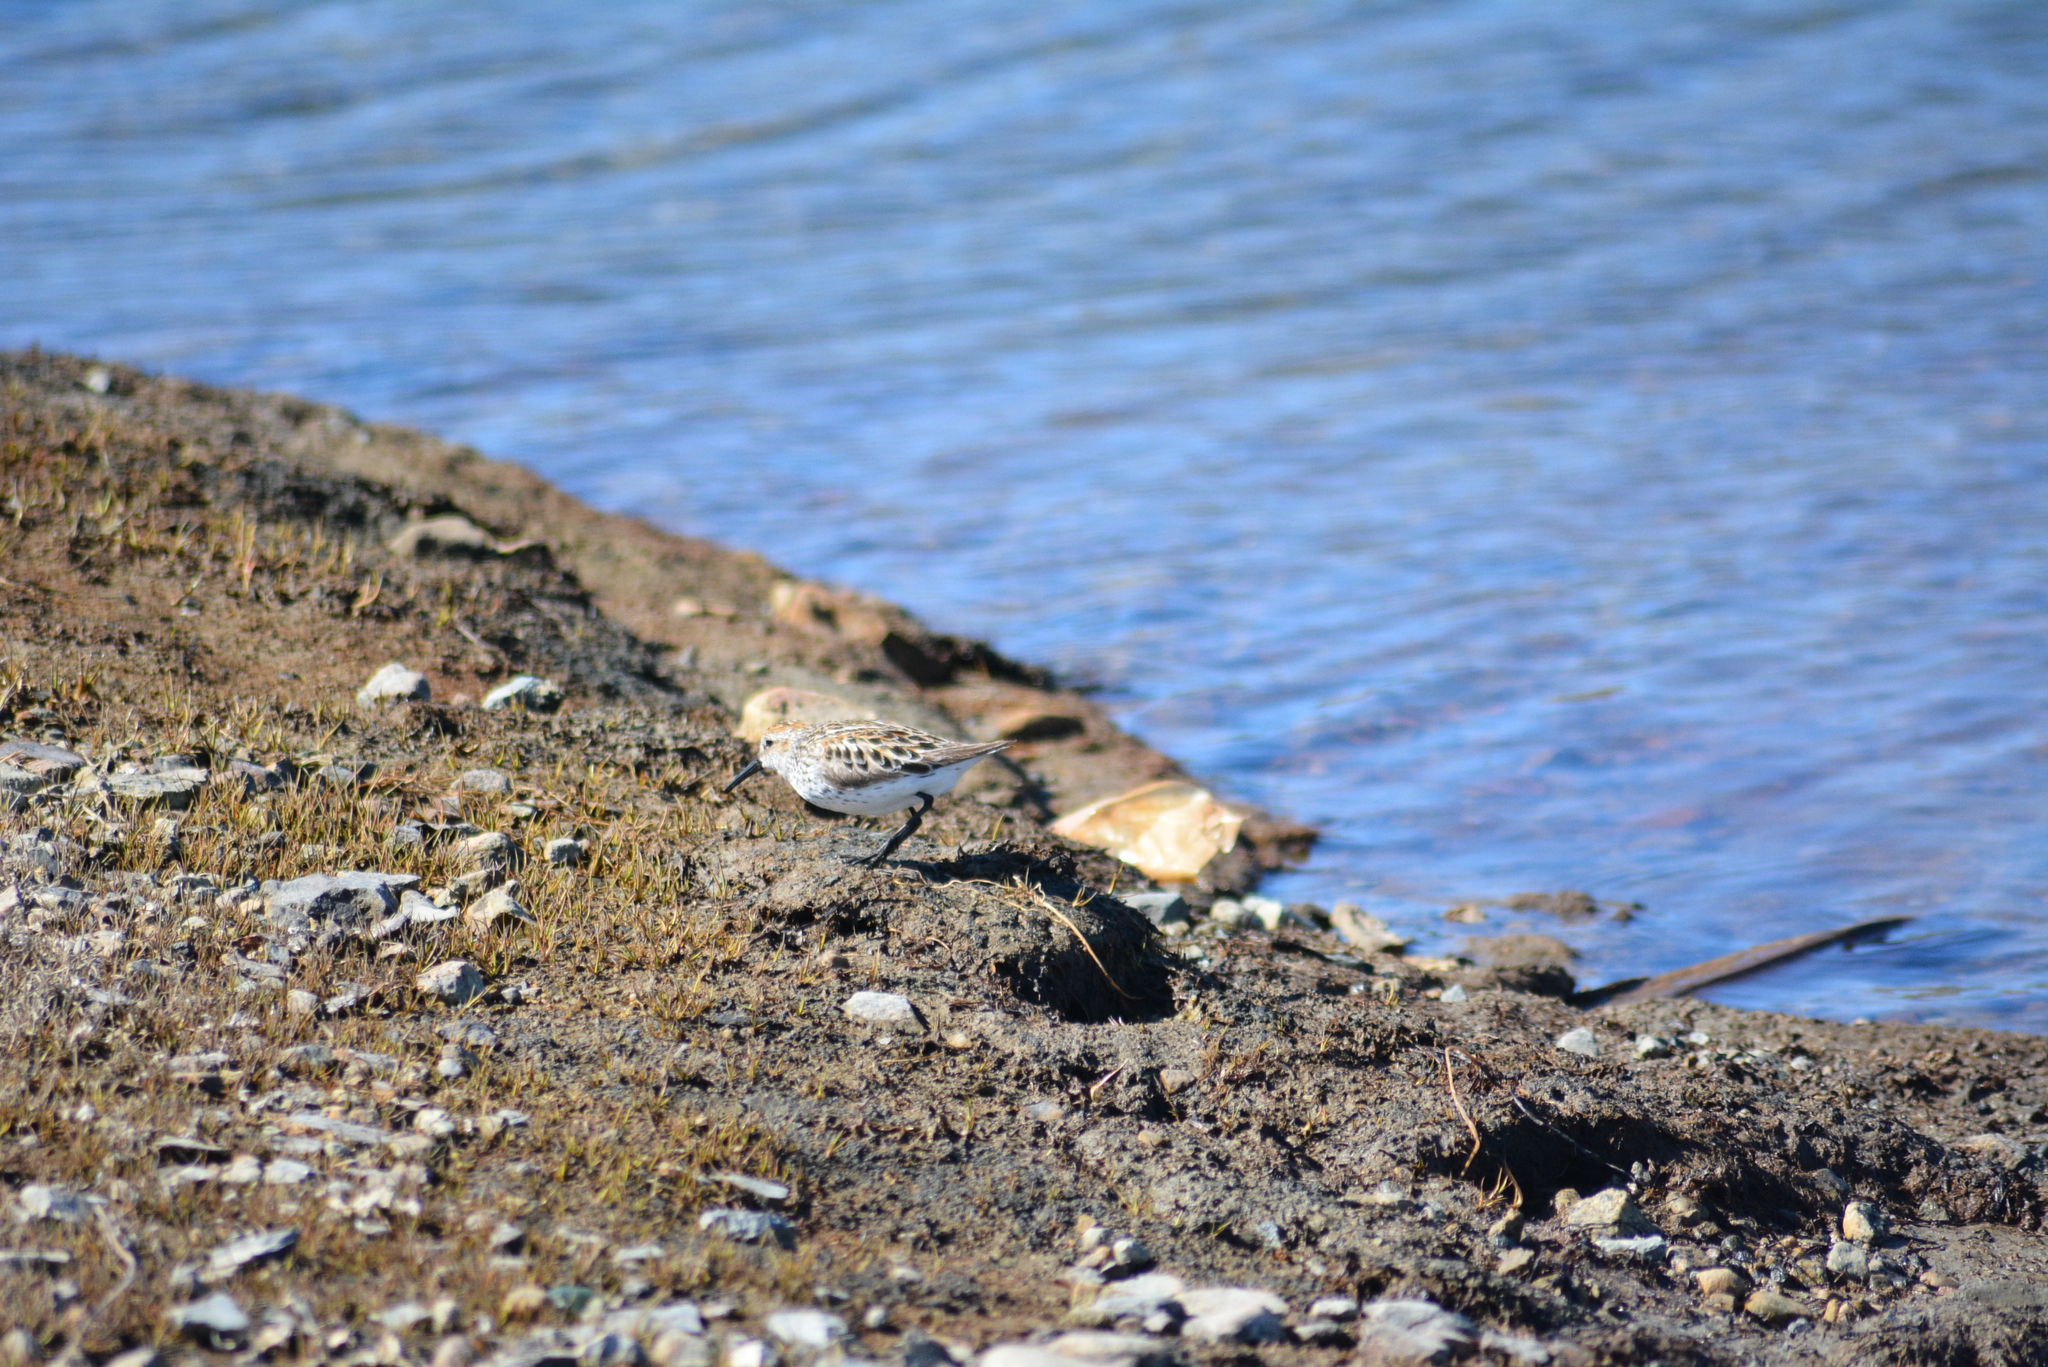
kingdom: Animalia
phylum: Chordata
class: Aves
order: Charadriiformes
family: Scolopacidae
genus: Calidris
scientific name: Calidris mauri
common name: Western sandpiper
